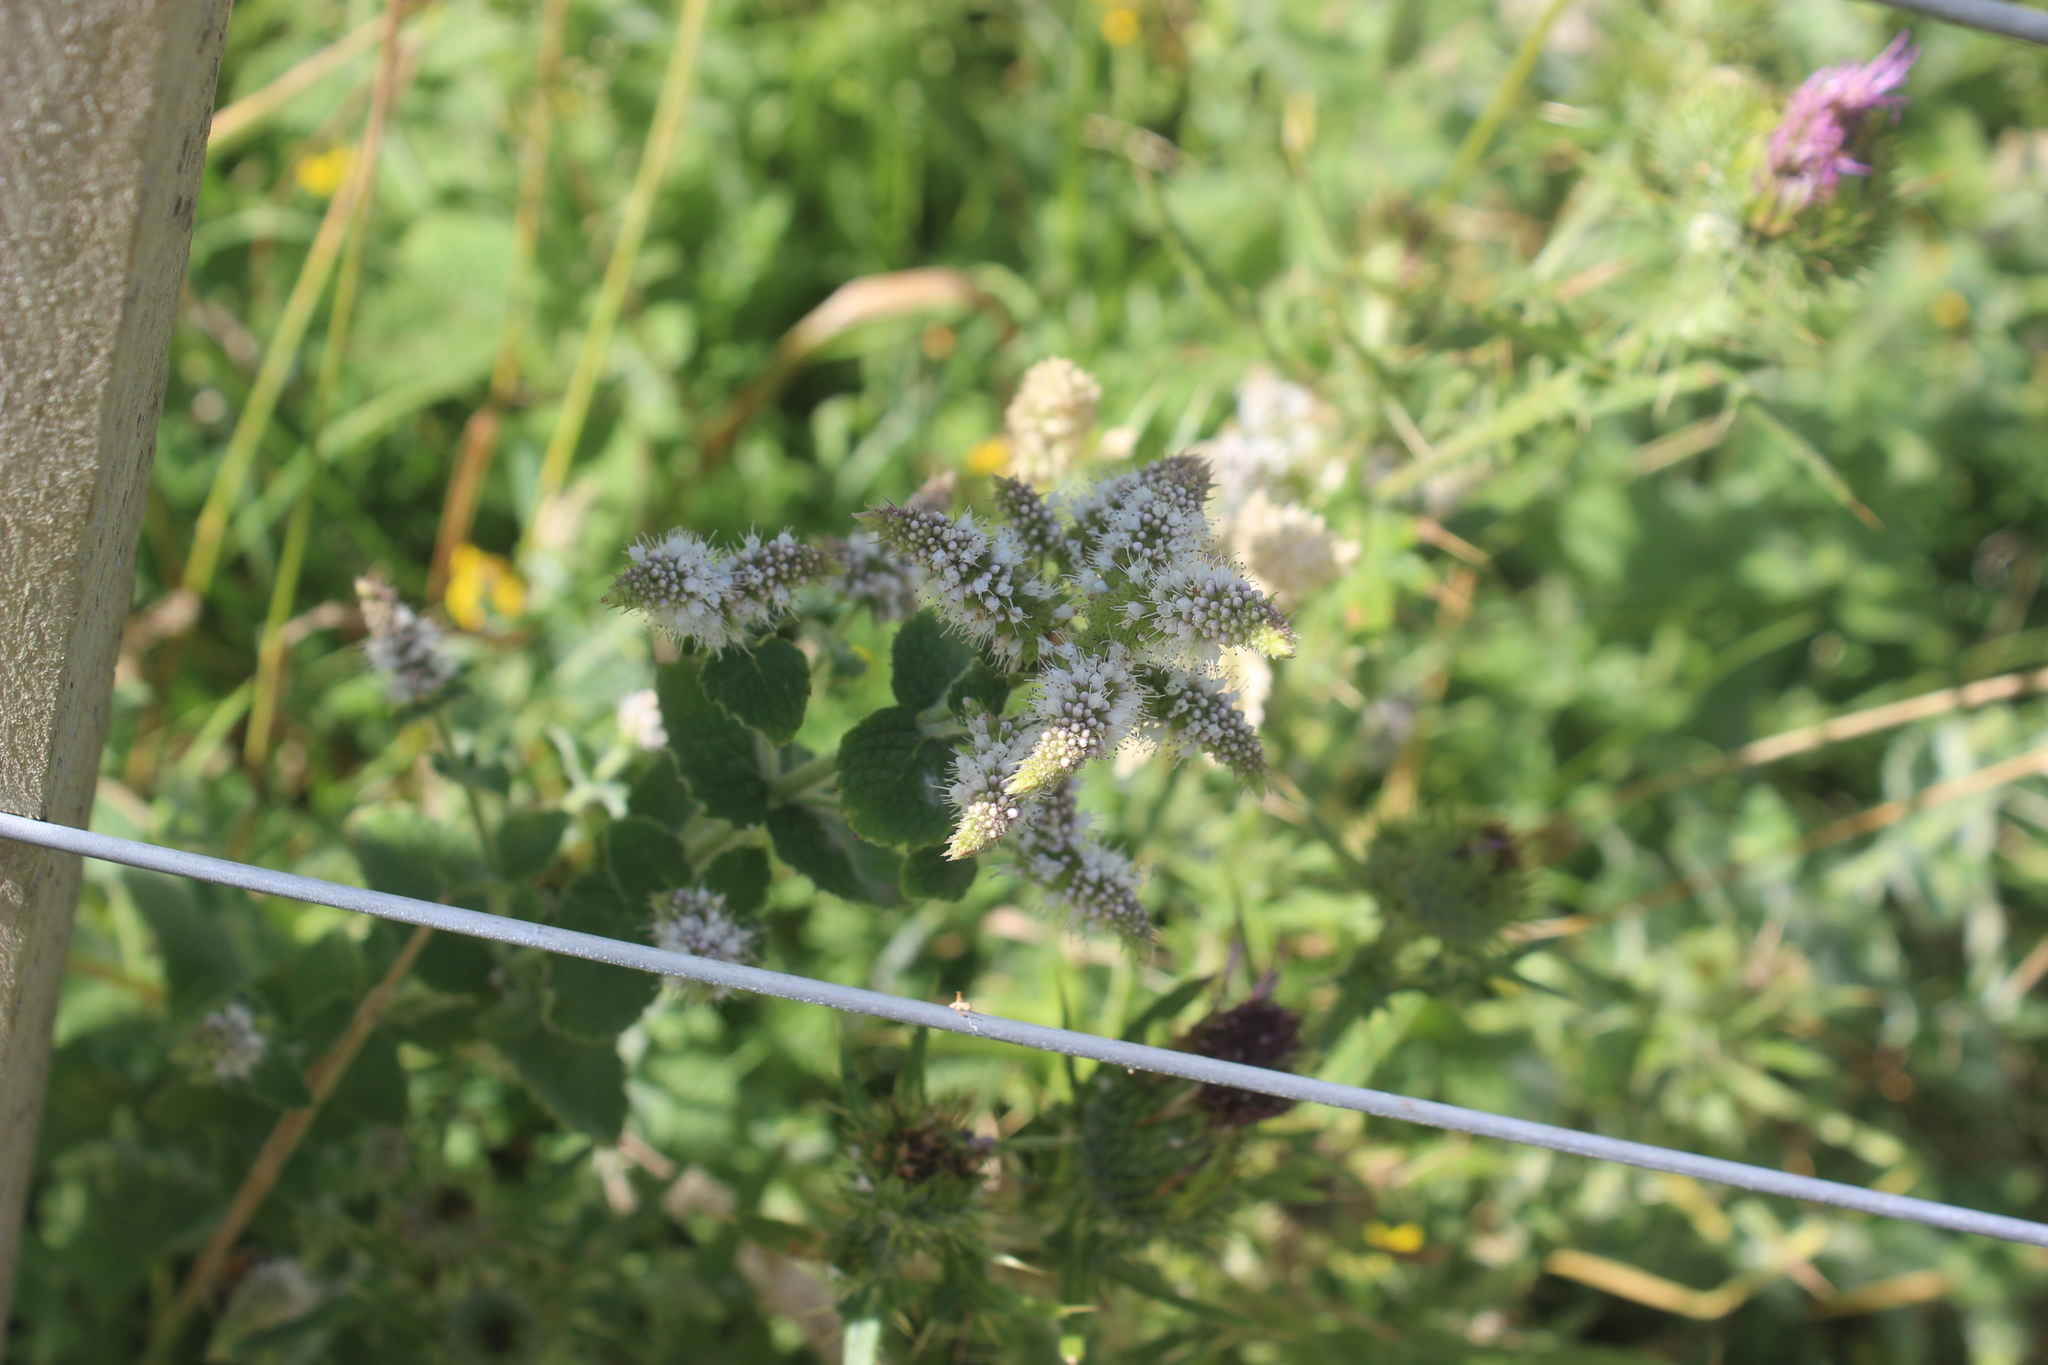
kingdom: Plantae
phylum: Tracheophyta
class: Magnoliopsida
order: Lamiales
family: Lamiaceae
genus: Mentha
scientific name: Mentha suaveolens
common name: Apple mint
